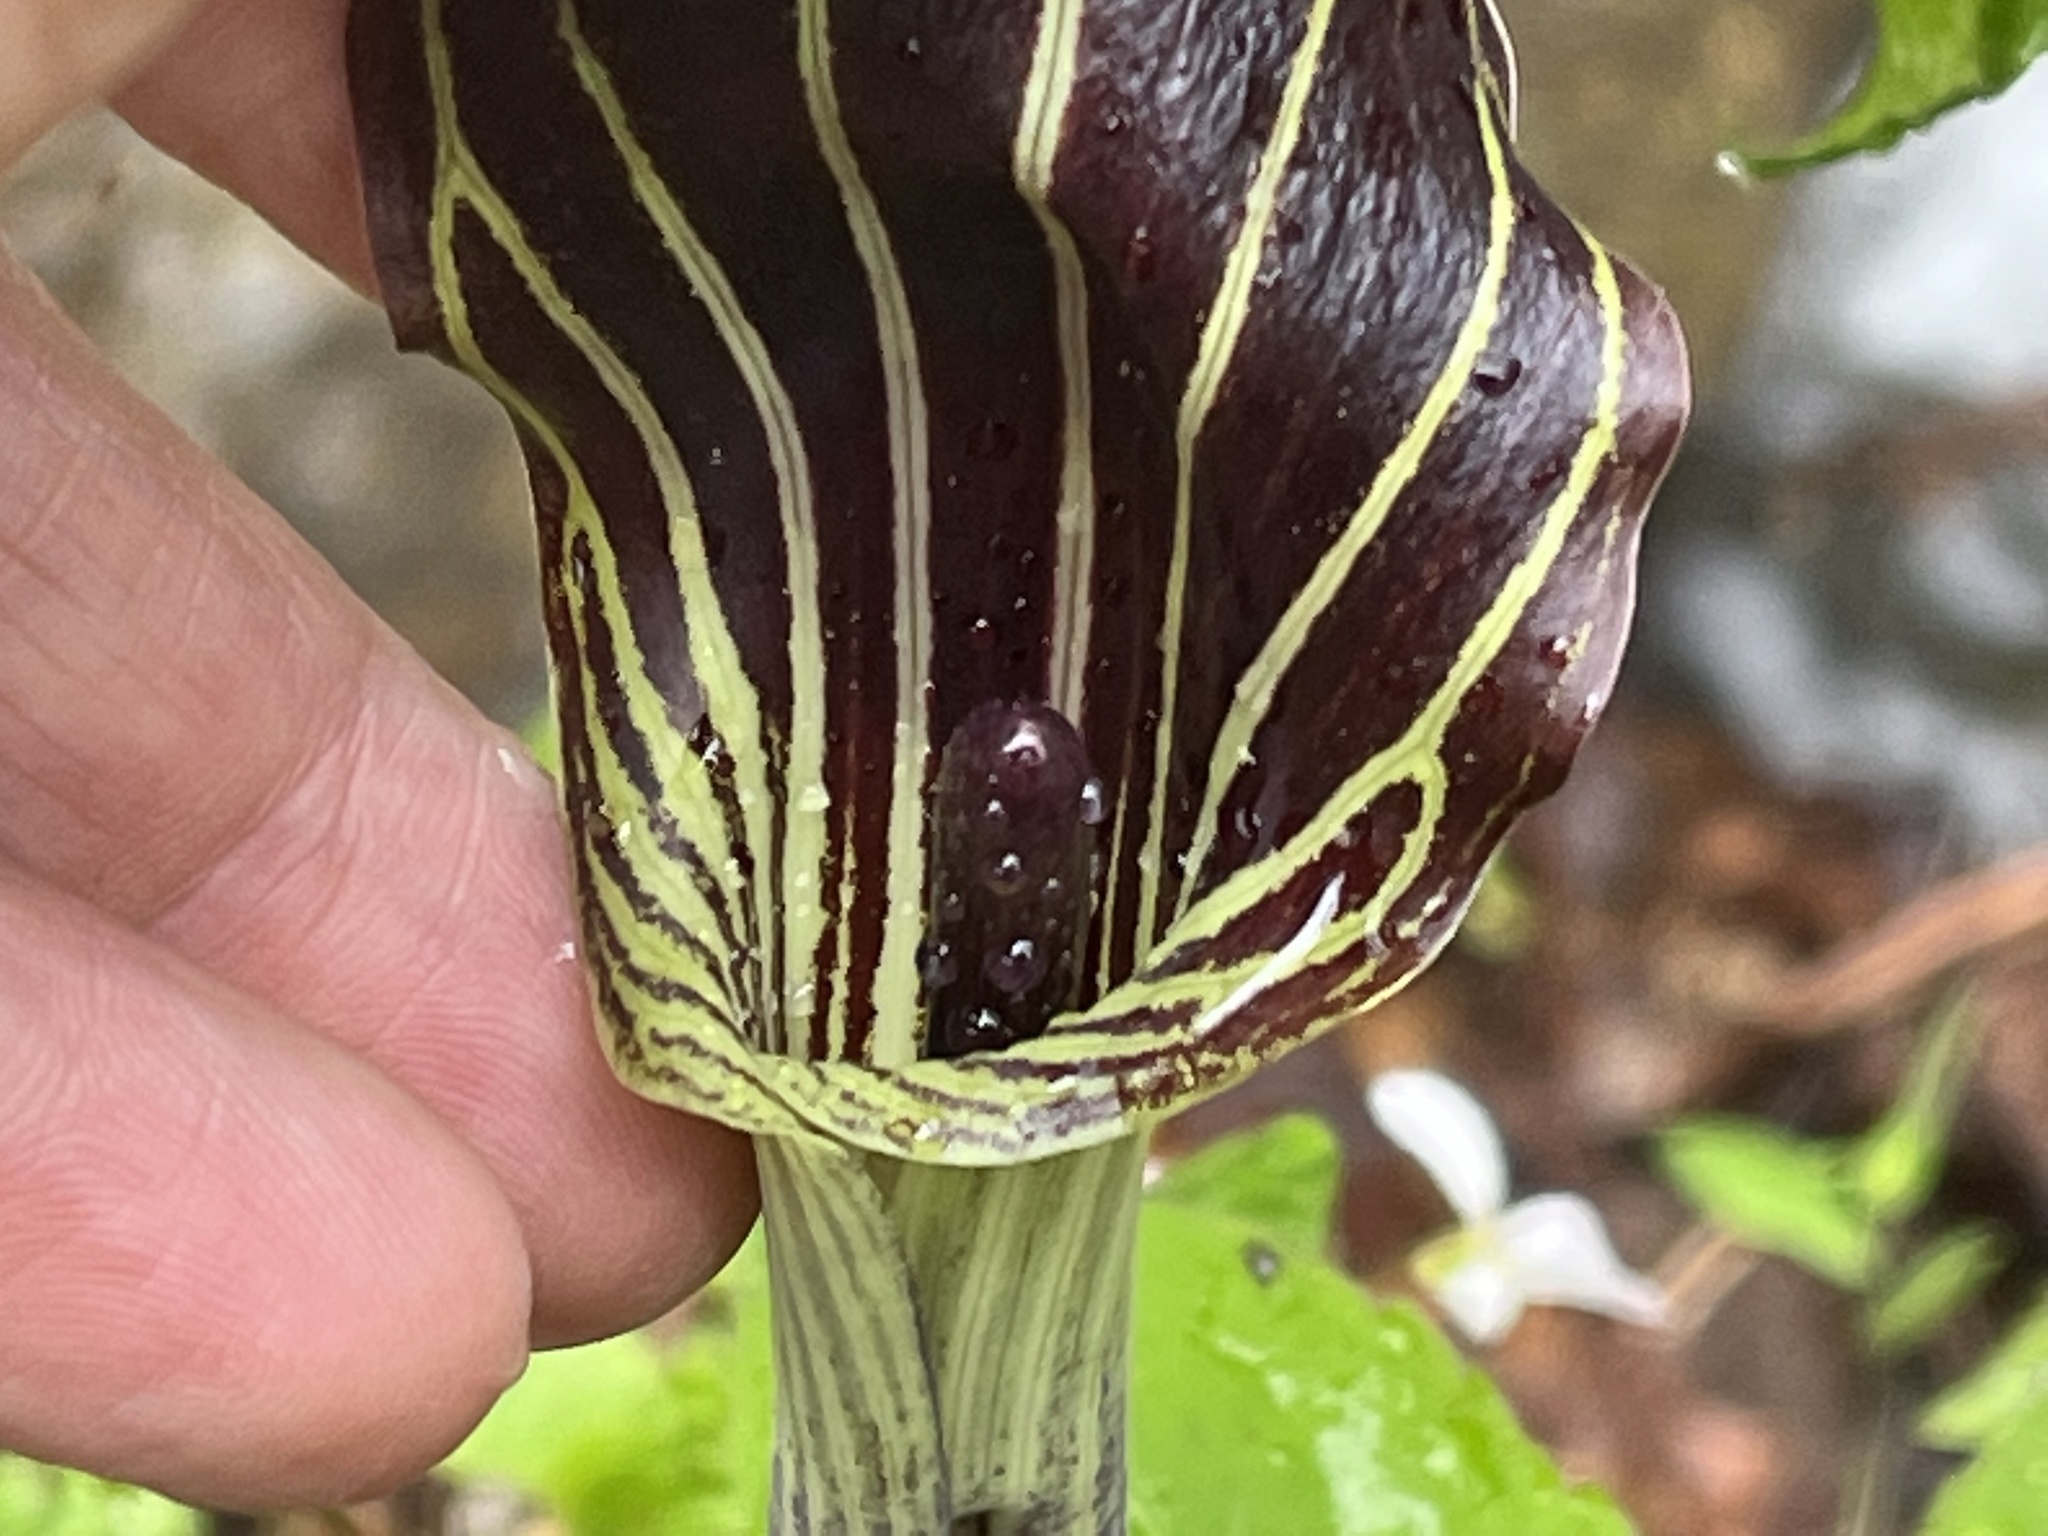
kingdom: Plantae
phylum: Tracheophyta
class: Liliopsida
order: Alismatales
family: Araceae
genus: Arisaema
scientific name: Arisaema triphyllum
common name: Jack-in-the-pulpit
